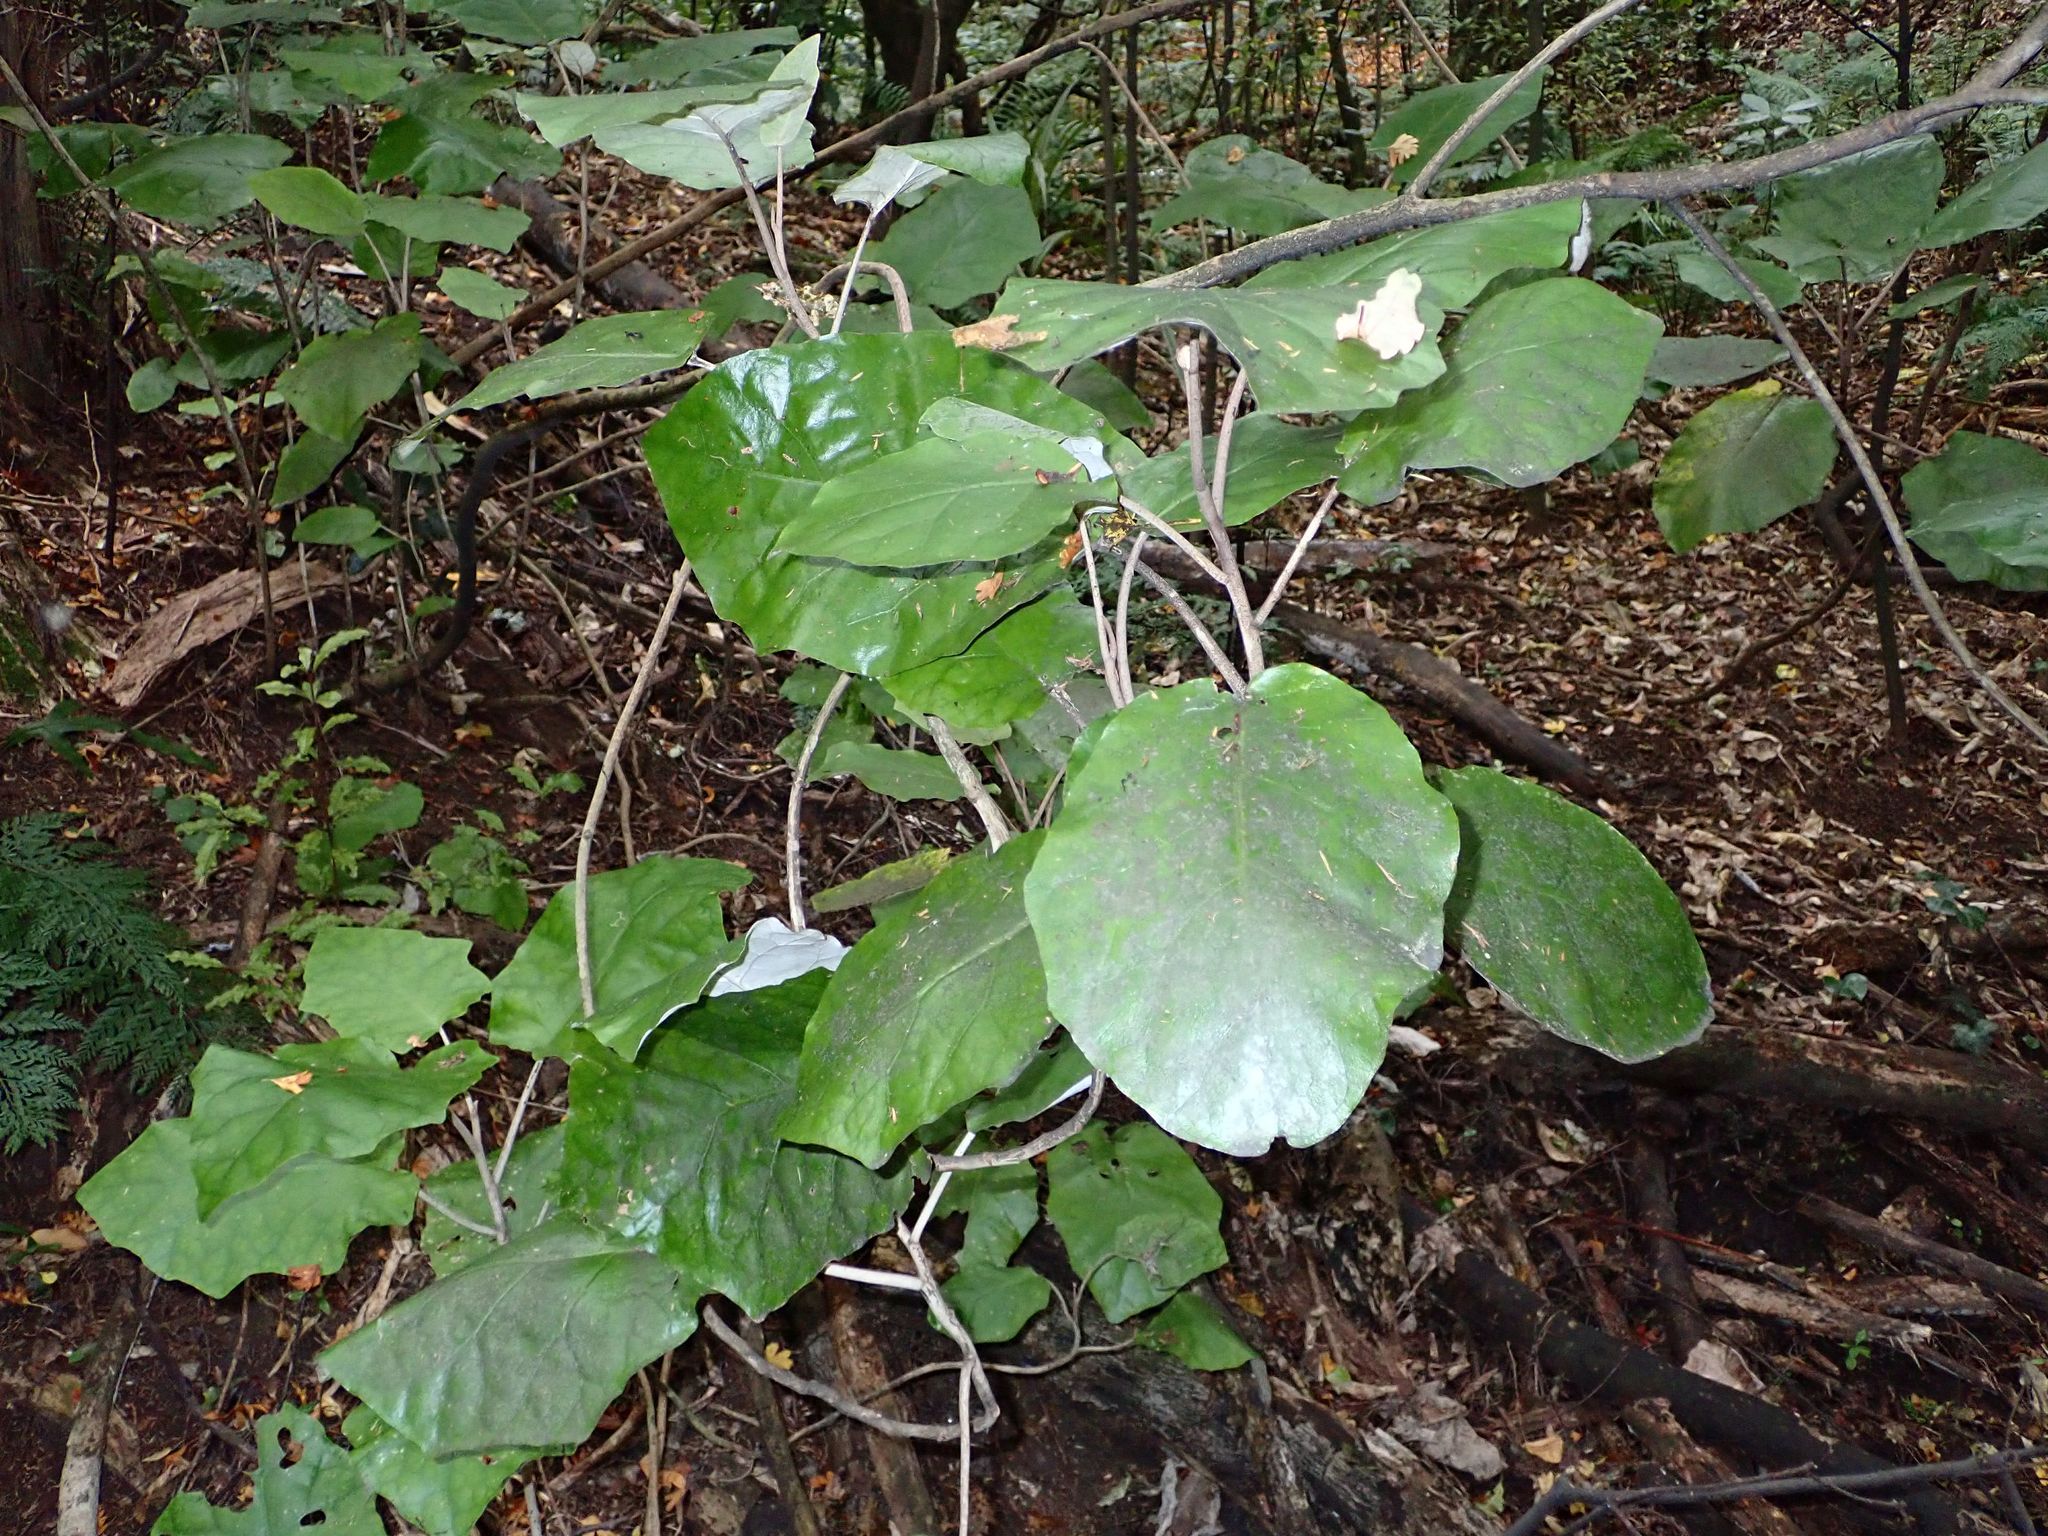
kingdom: Plantae
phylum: Tracheophyta
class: Magnoliopsida
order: Asterales
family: Asteraceae
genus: Brachyglottis
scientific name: Brachyglottis repanda
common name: Hedge ragwort
